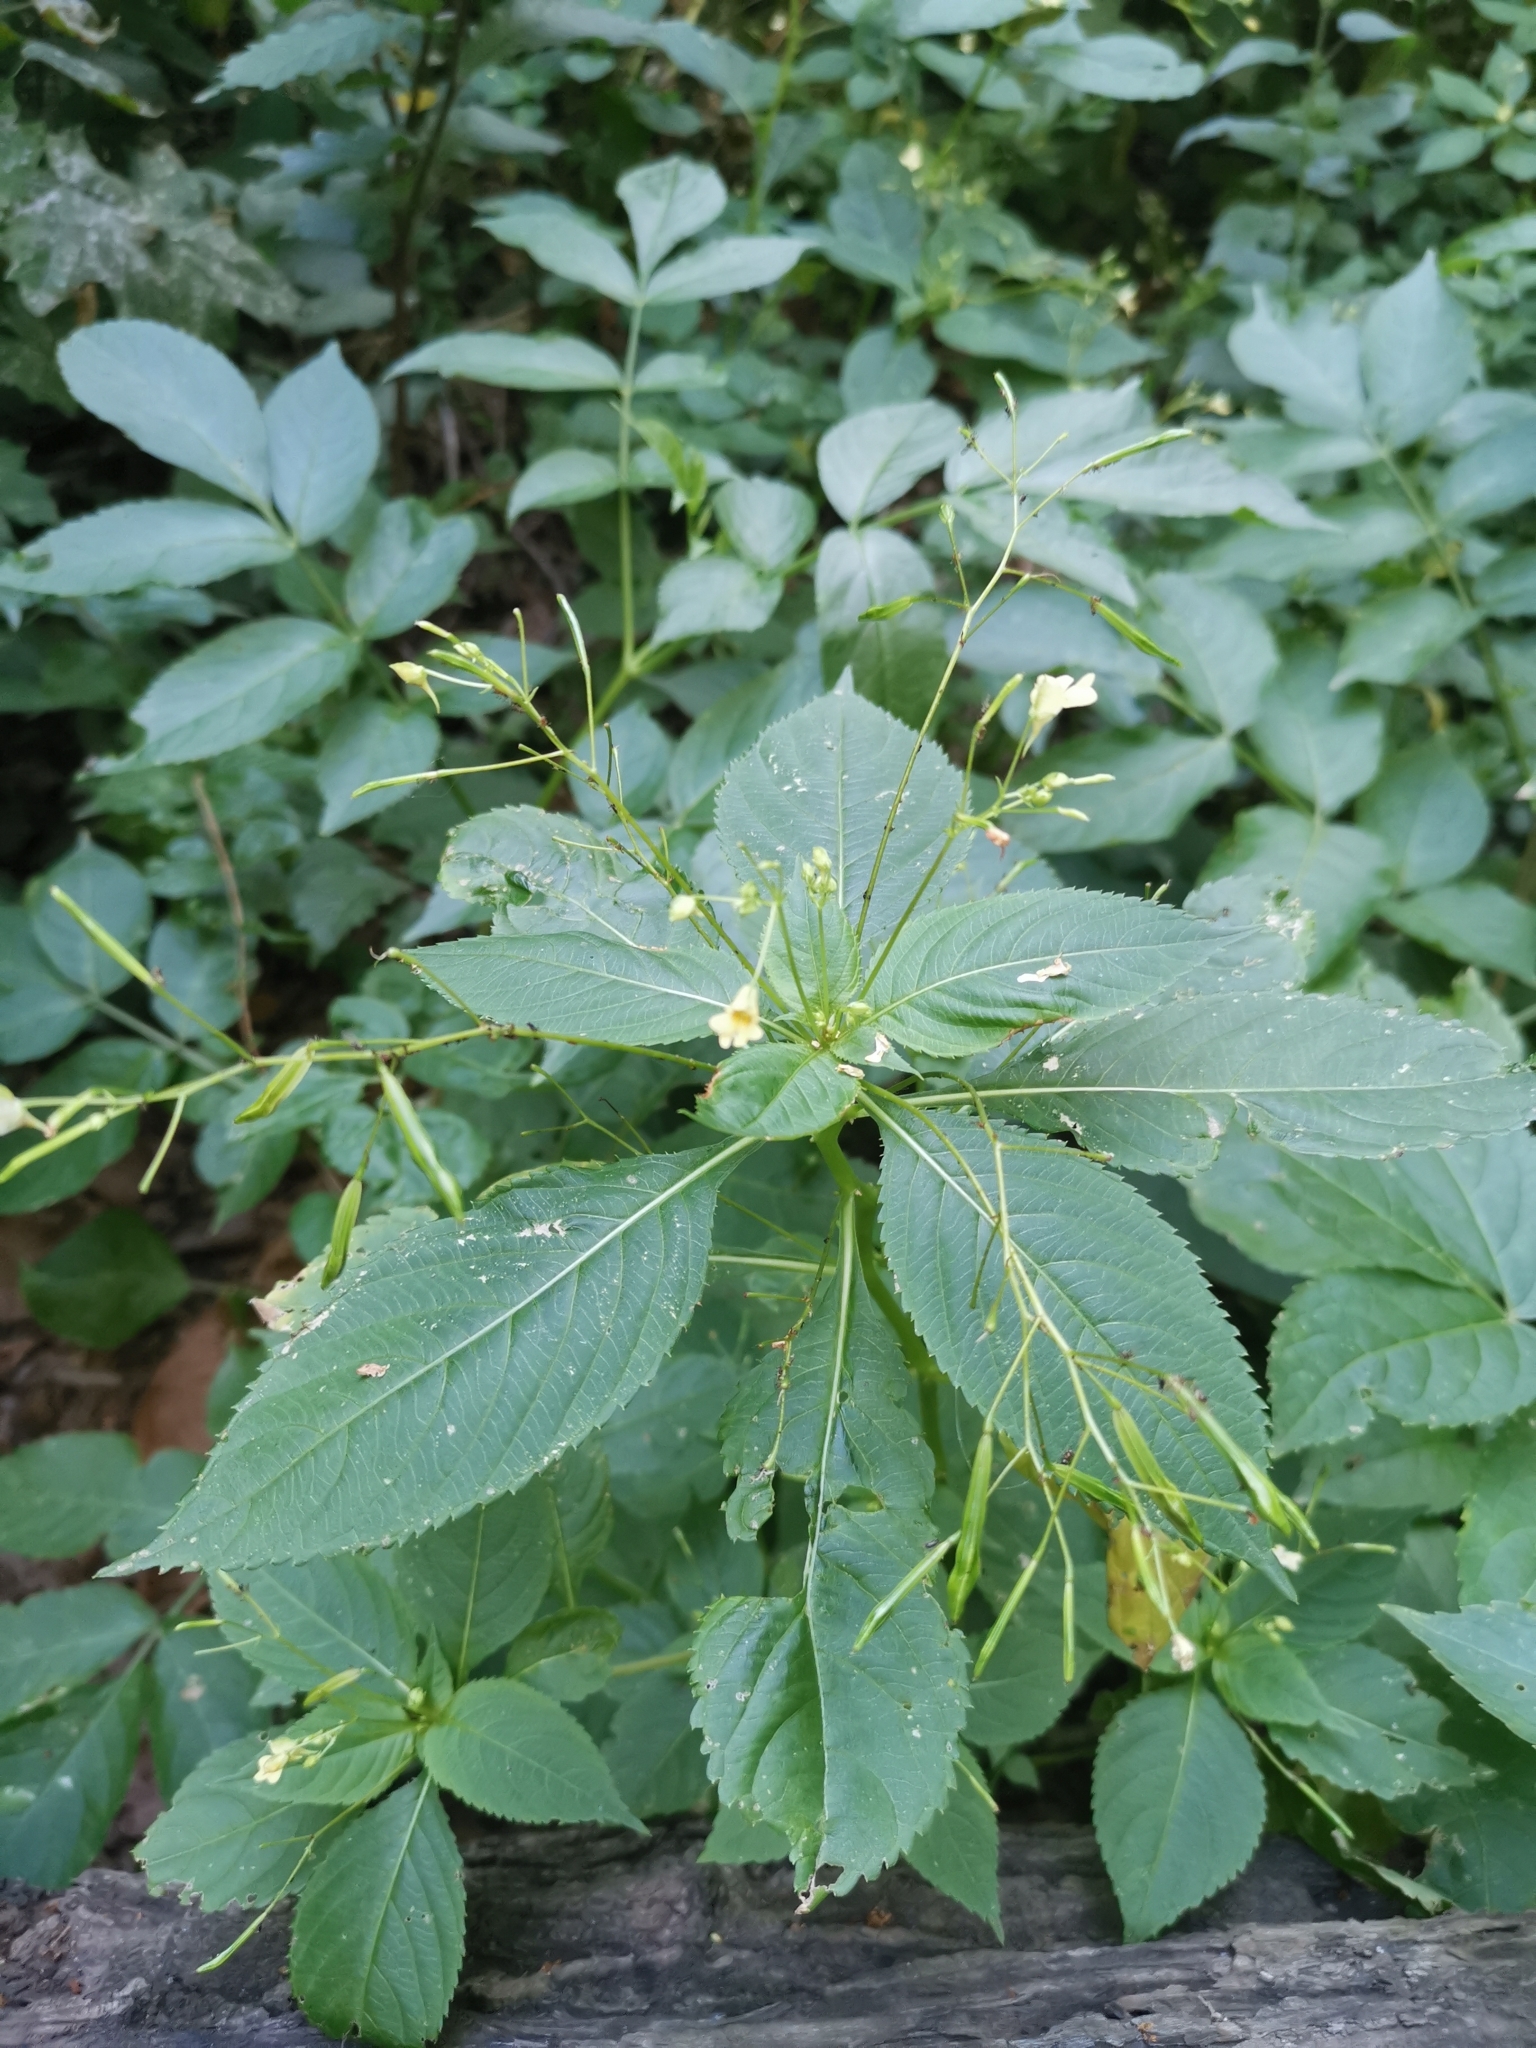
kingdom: Plantae
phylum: Tracheophyta
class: Magnoliopsida
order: Ericales
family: Balsaminaceae
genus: Impatiens
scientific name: Impatiens parviflora
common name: Small balsam
